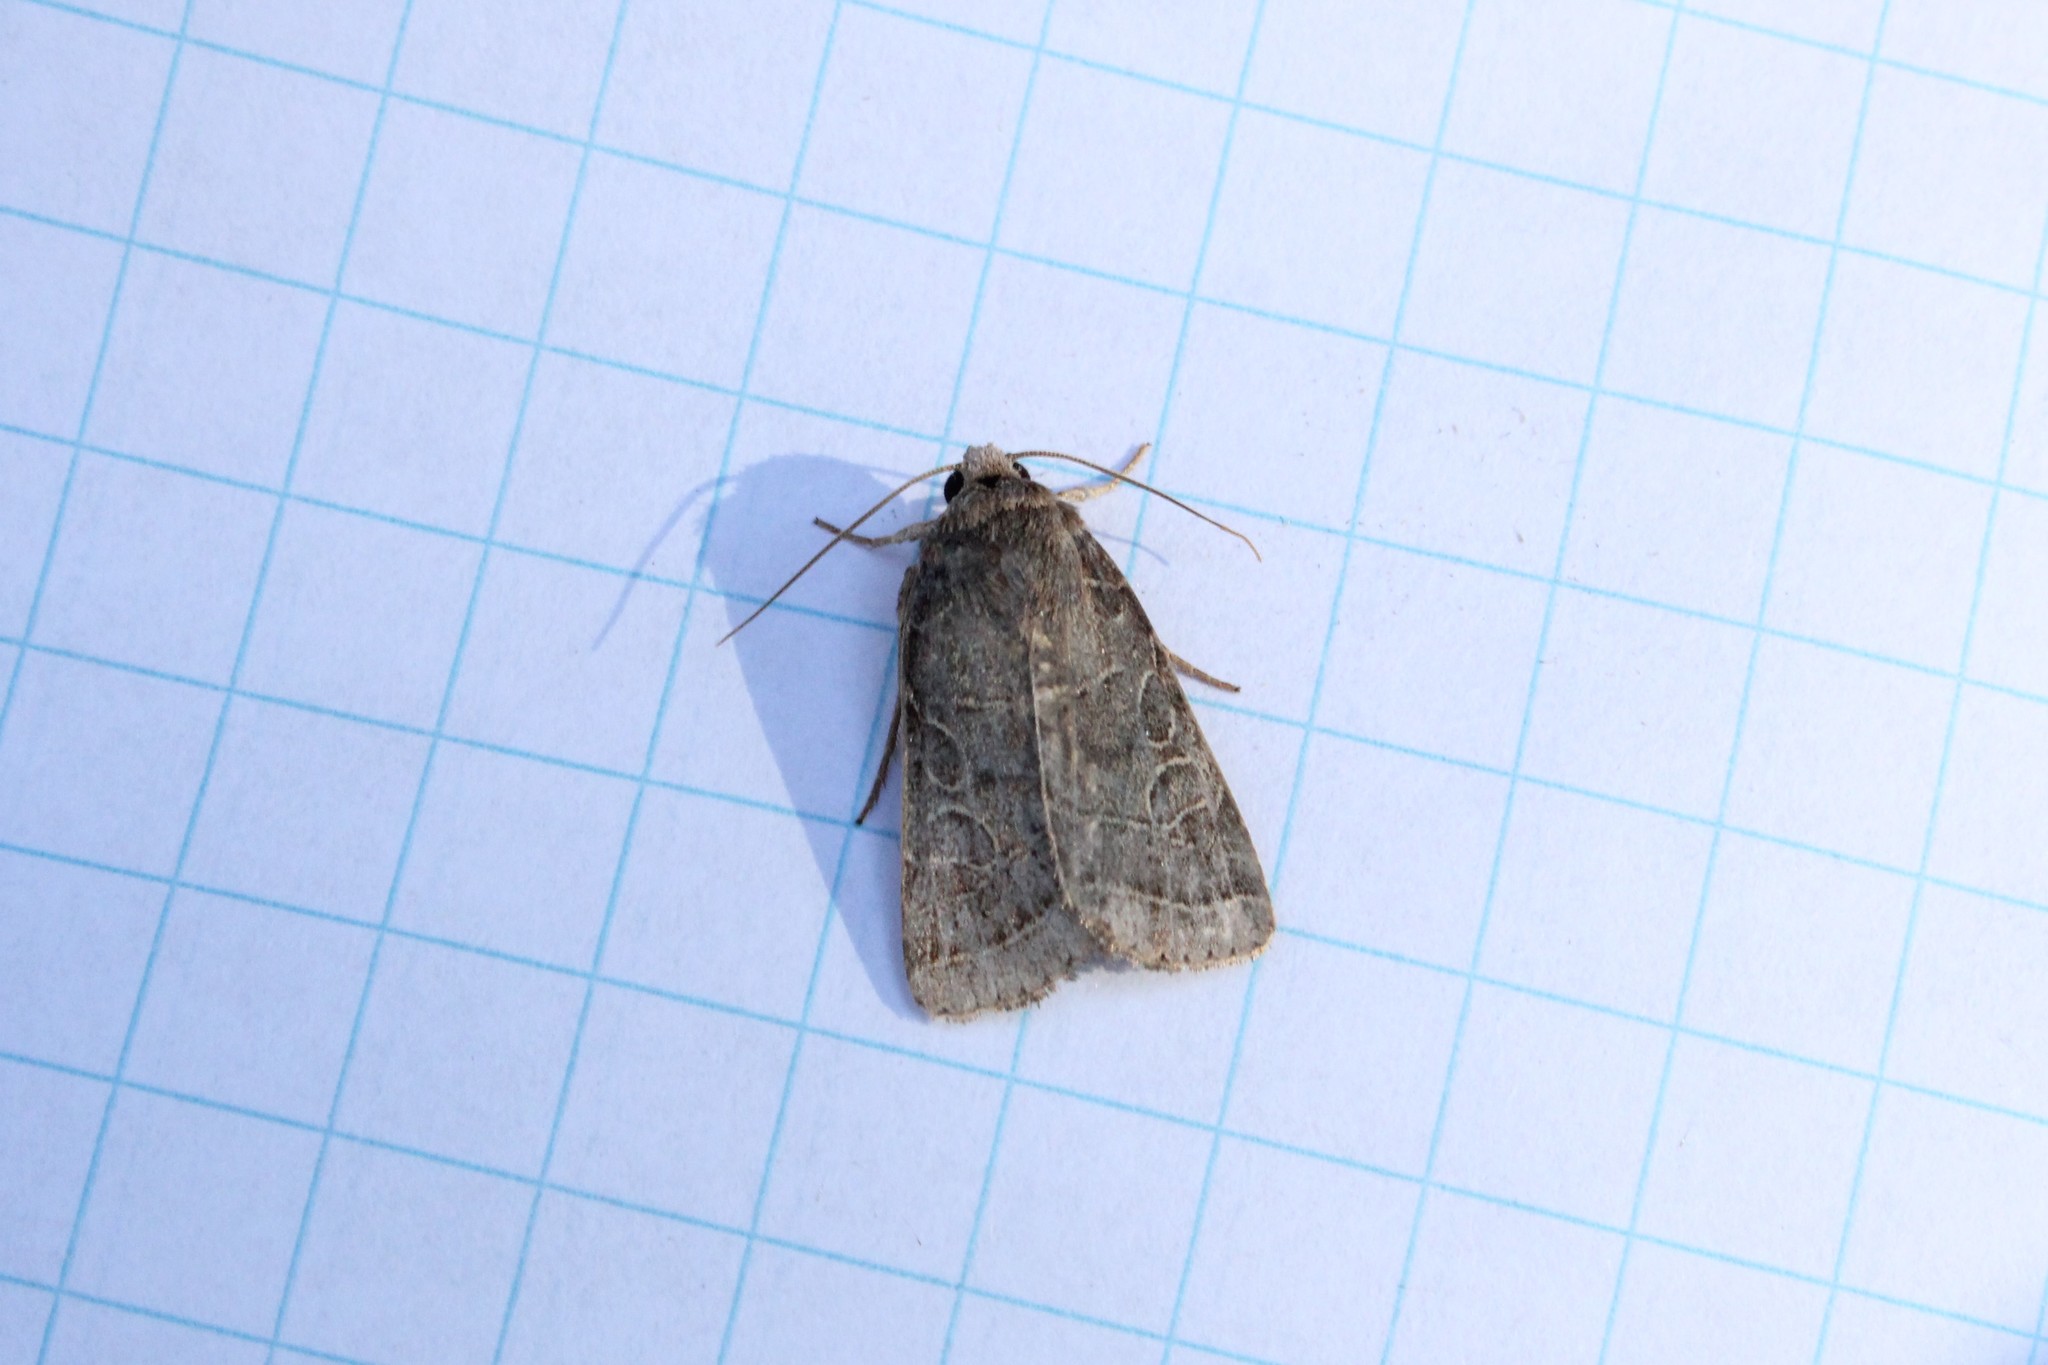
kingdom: Animalia
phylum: Arthropoda
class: Insecta
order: Lepidoptera
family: Noctuidae
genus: Orthodes
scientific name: Orthodes majuscula
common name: Rustic quaker
